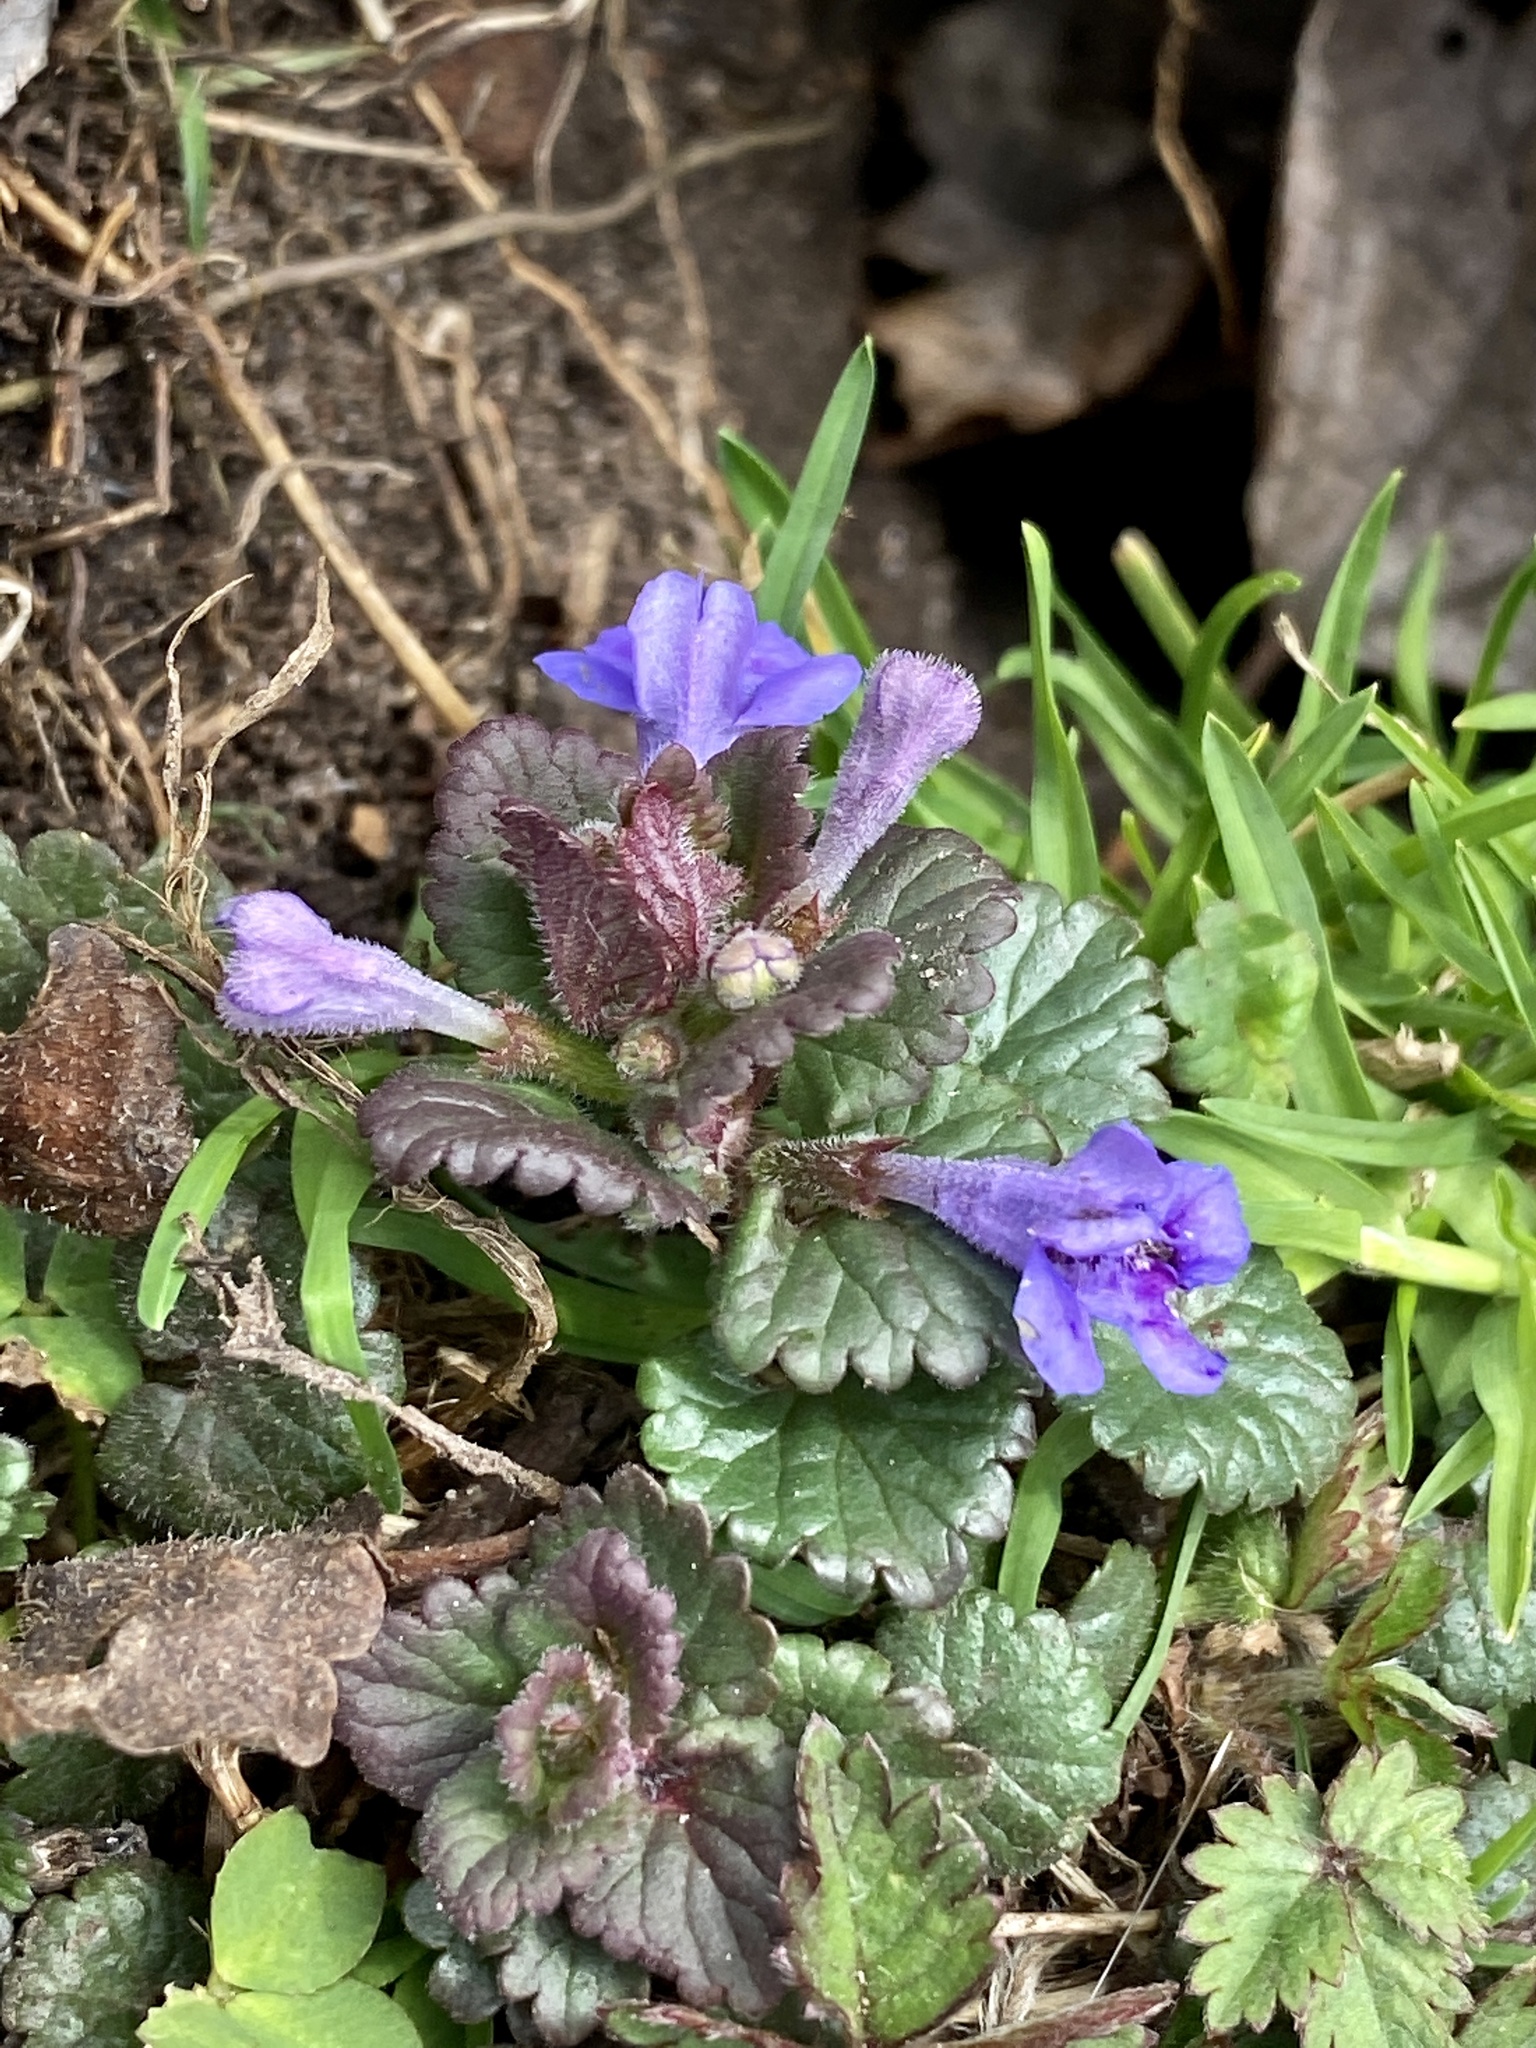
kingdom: Plantae
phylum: Tracheophyta
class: Magnoliopsida
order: Lamiales
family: Lamiaceae
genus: Glechoma
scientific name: Glechoma hederacea
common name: Ground ivy
